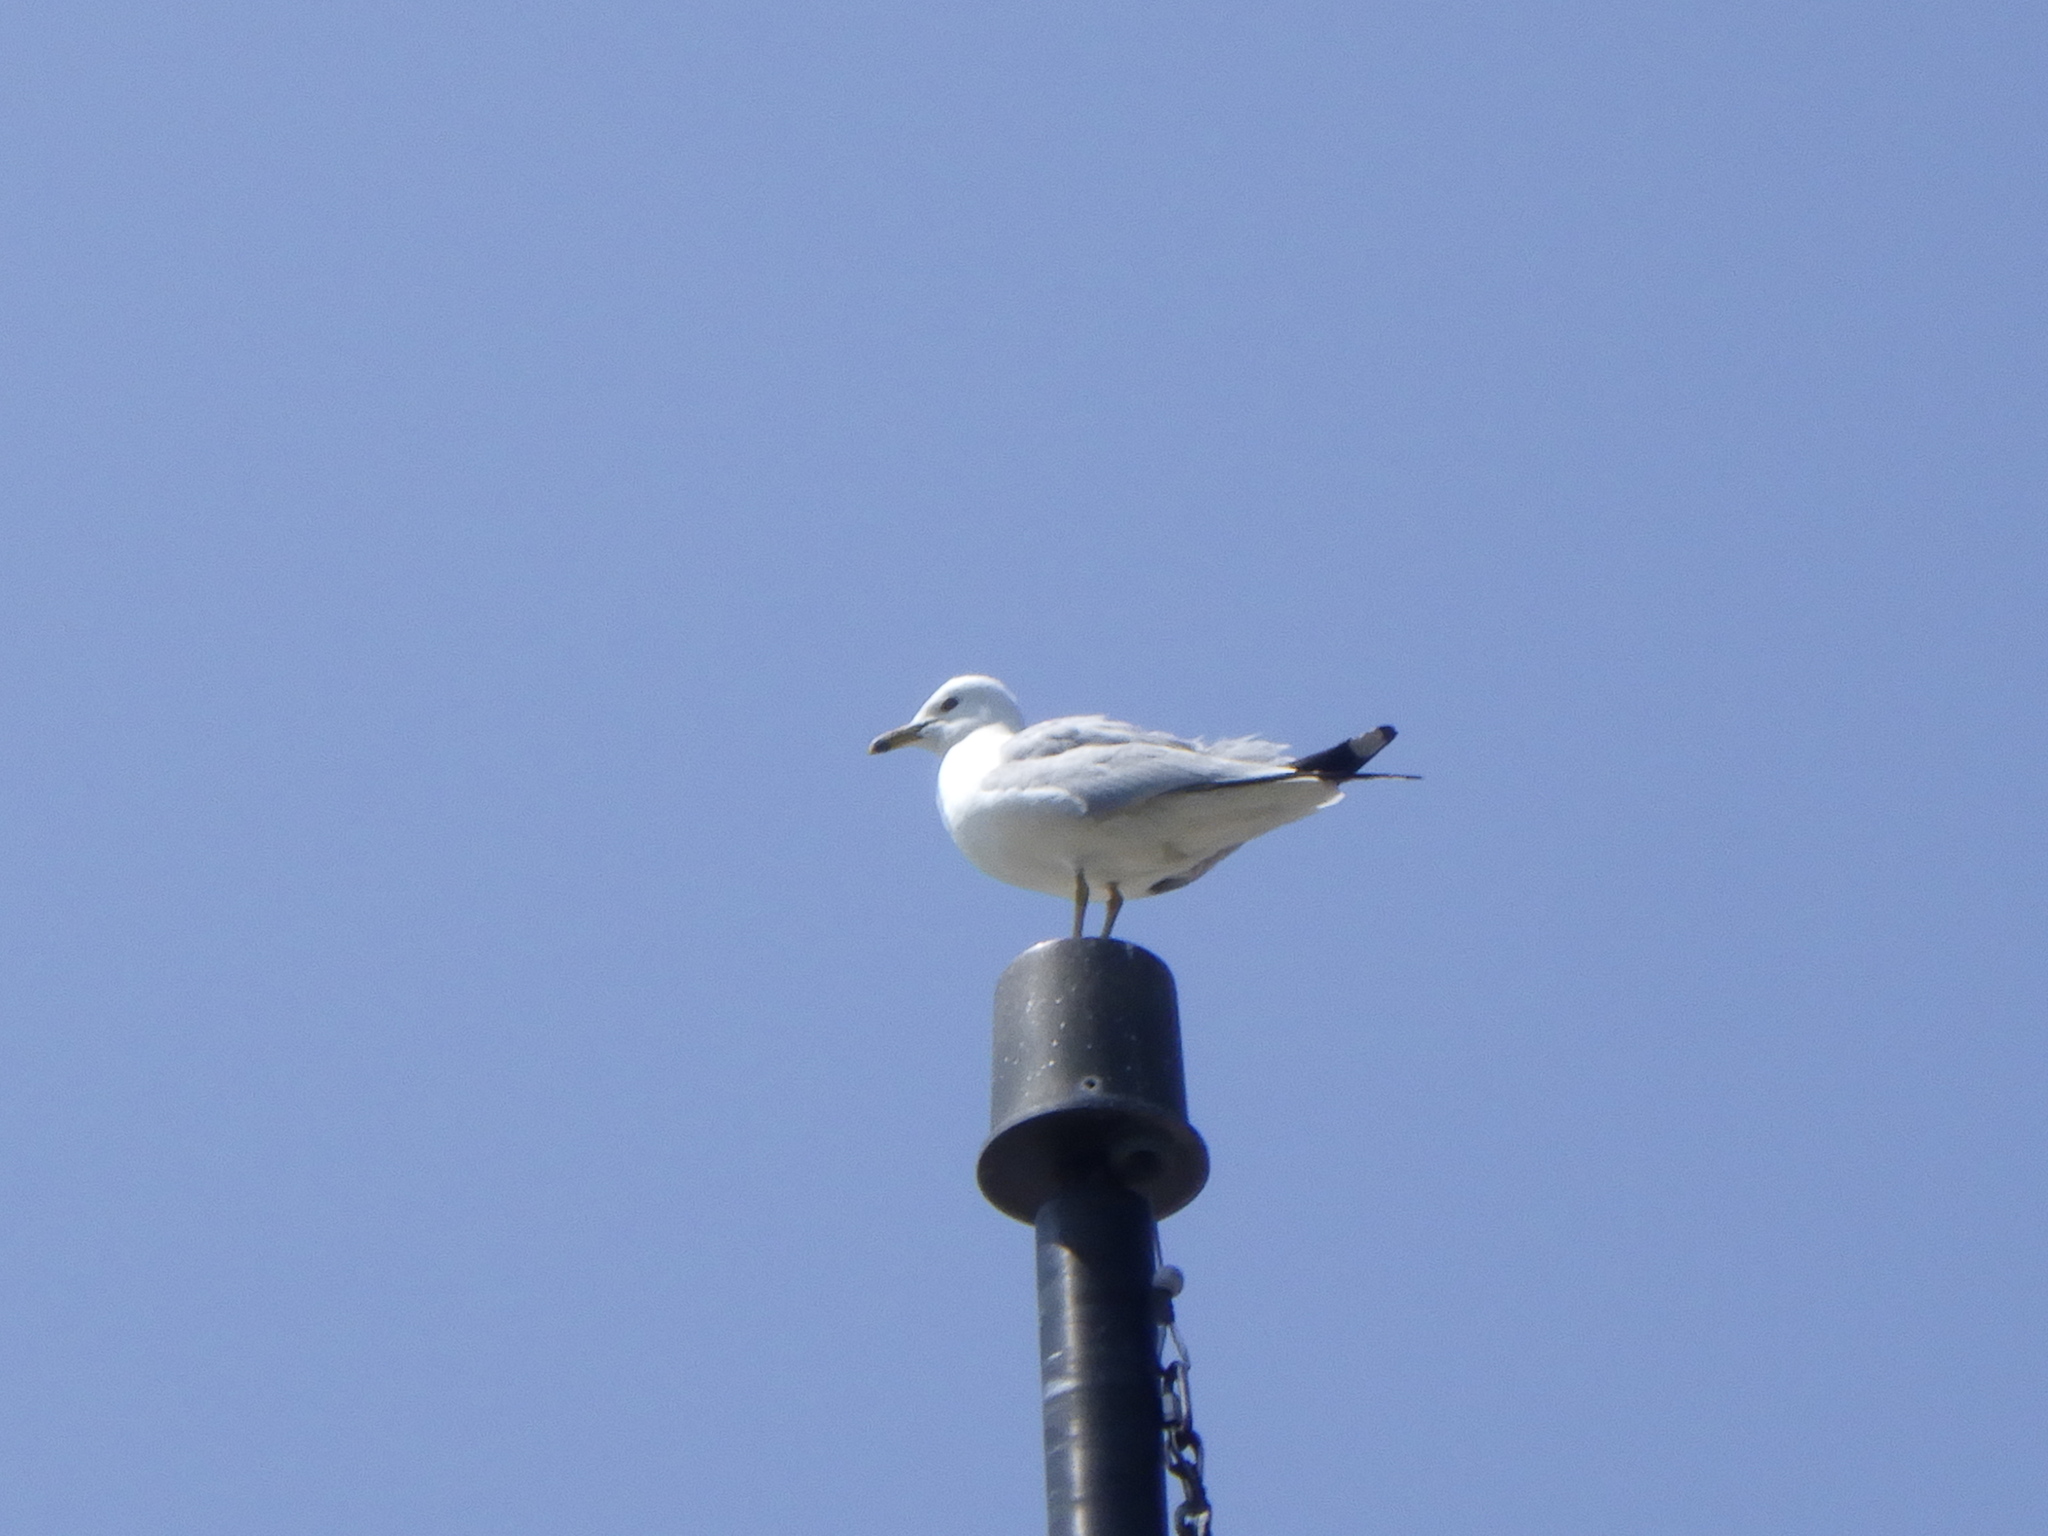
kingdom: Animalia
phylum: Chordata
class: Aves
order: Charadriiformes
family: Laridae
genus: Larus
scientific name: Larus delawarensis
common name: Ring-billed gull
